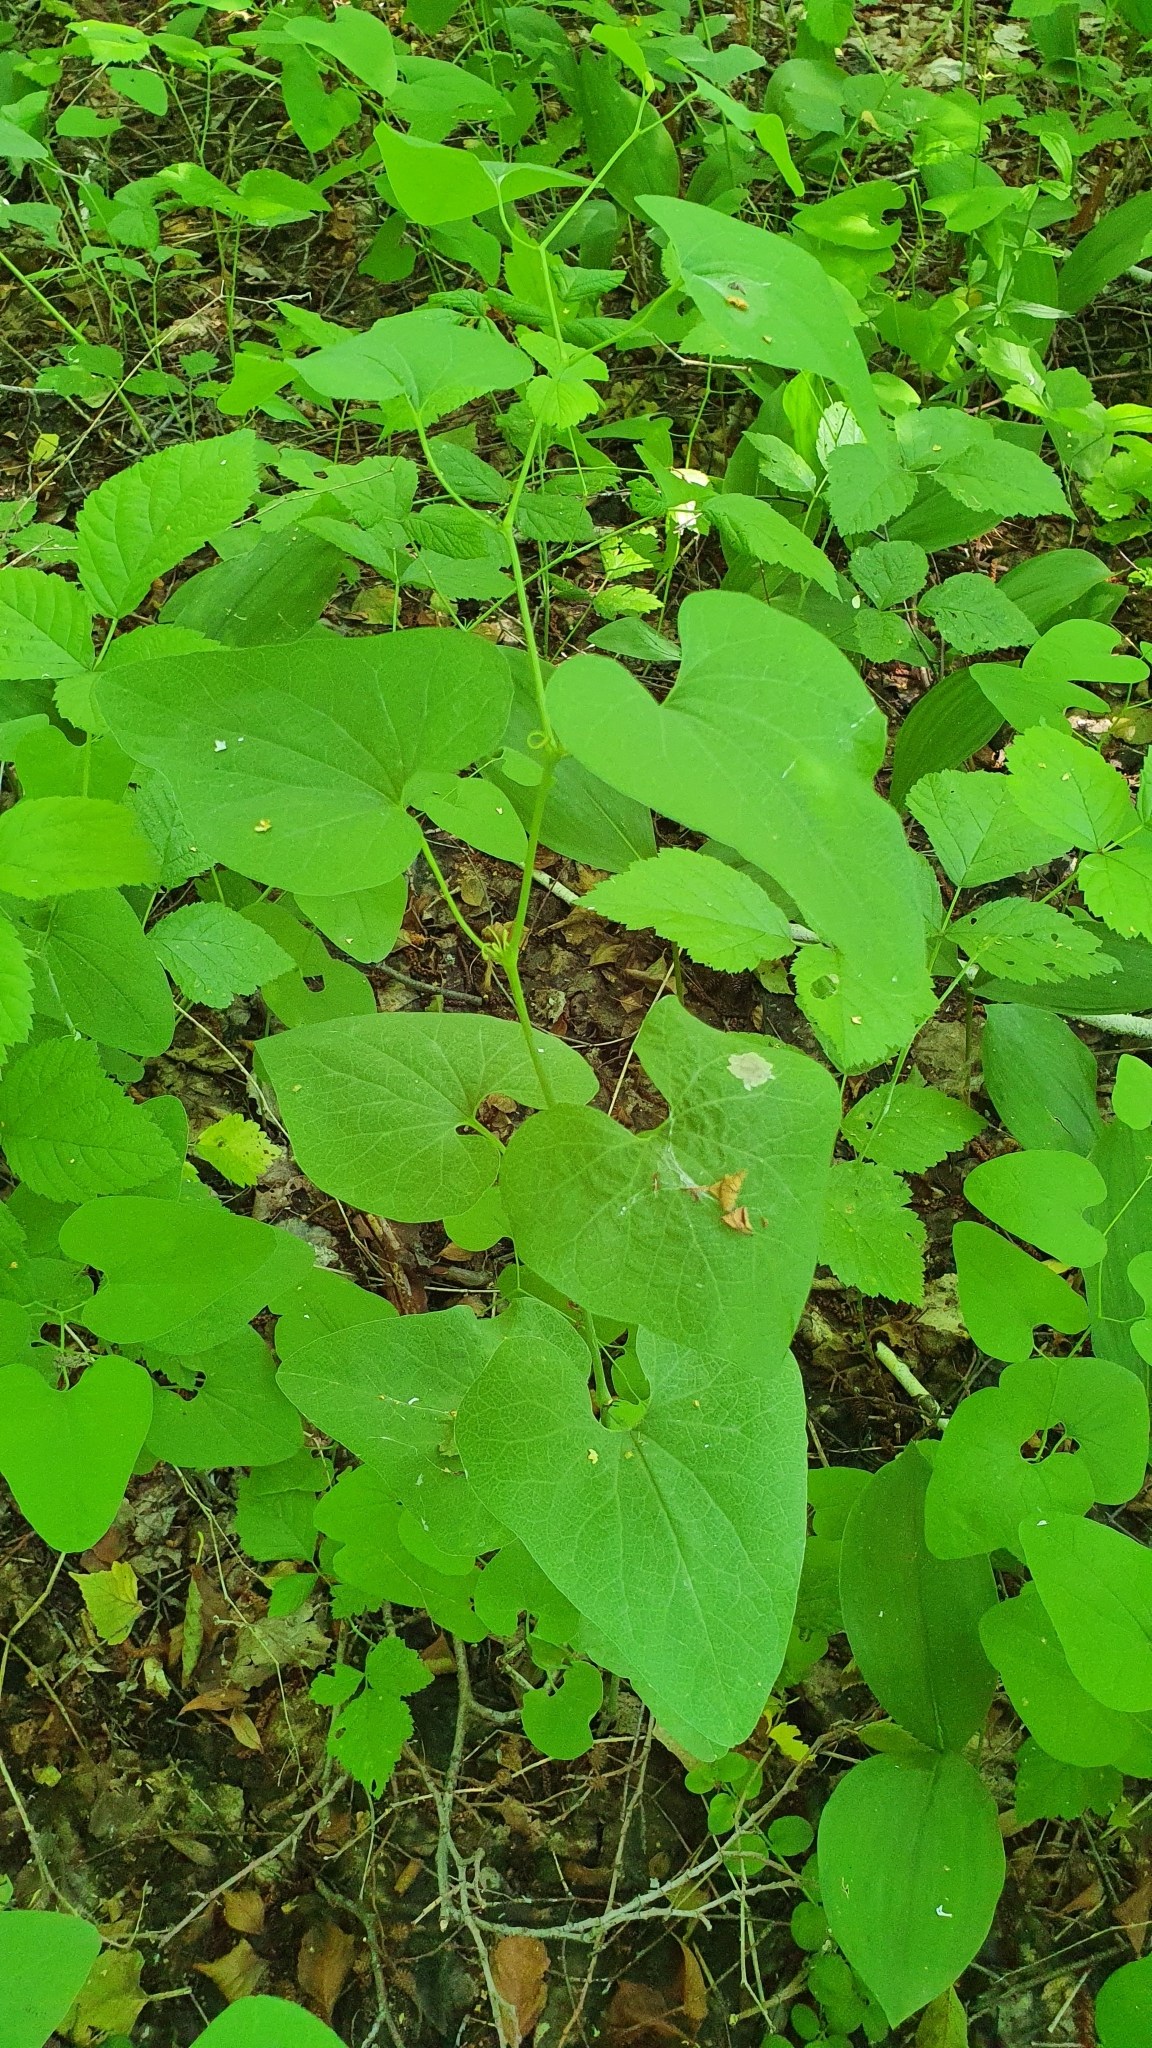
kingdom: Plantae
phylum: Tracheophyta
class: Magnoliopsida
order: Piperales
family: Aristolochiaceae
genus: Aristolochia
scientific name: Aristolochia clematitis
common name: Birthwort
